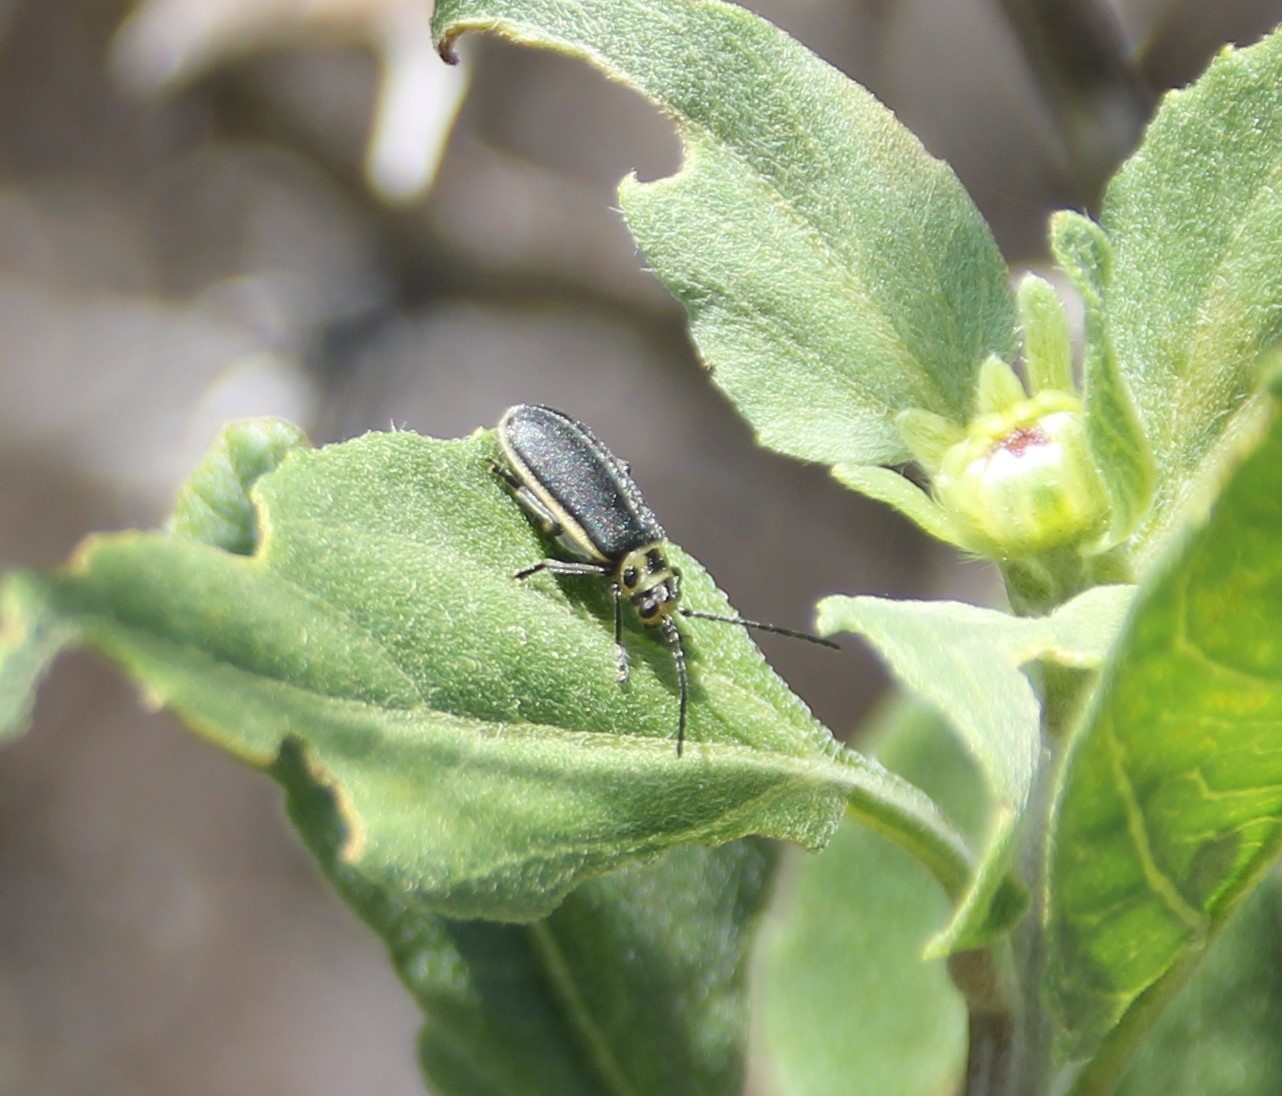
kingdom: Animalia
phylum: Arthropoda
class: Insecta
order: Coleoptera
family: Chrysomelidae
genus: Trirhabda
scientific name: Trirhabda geminata
